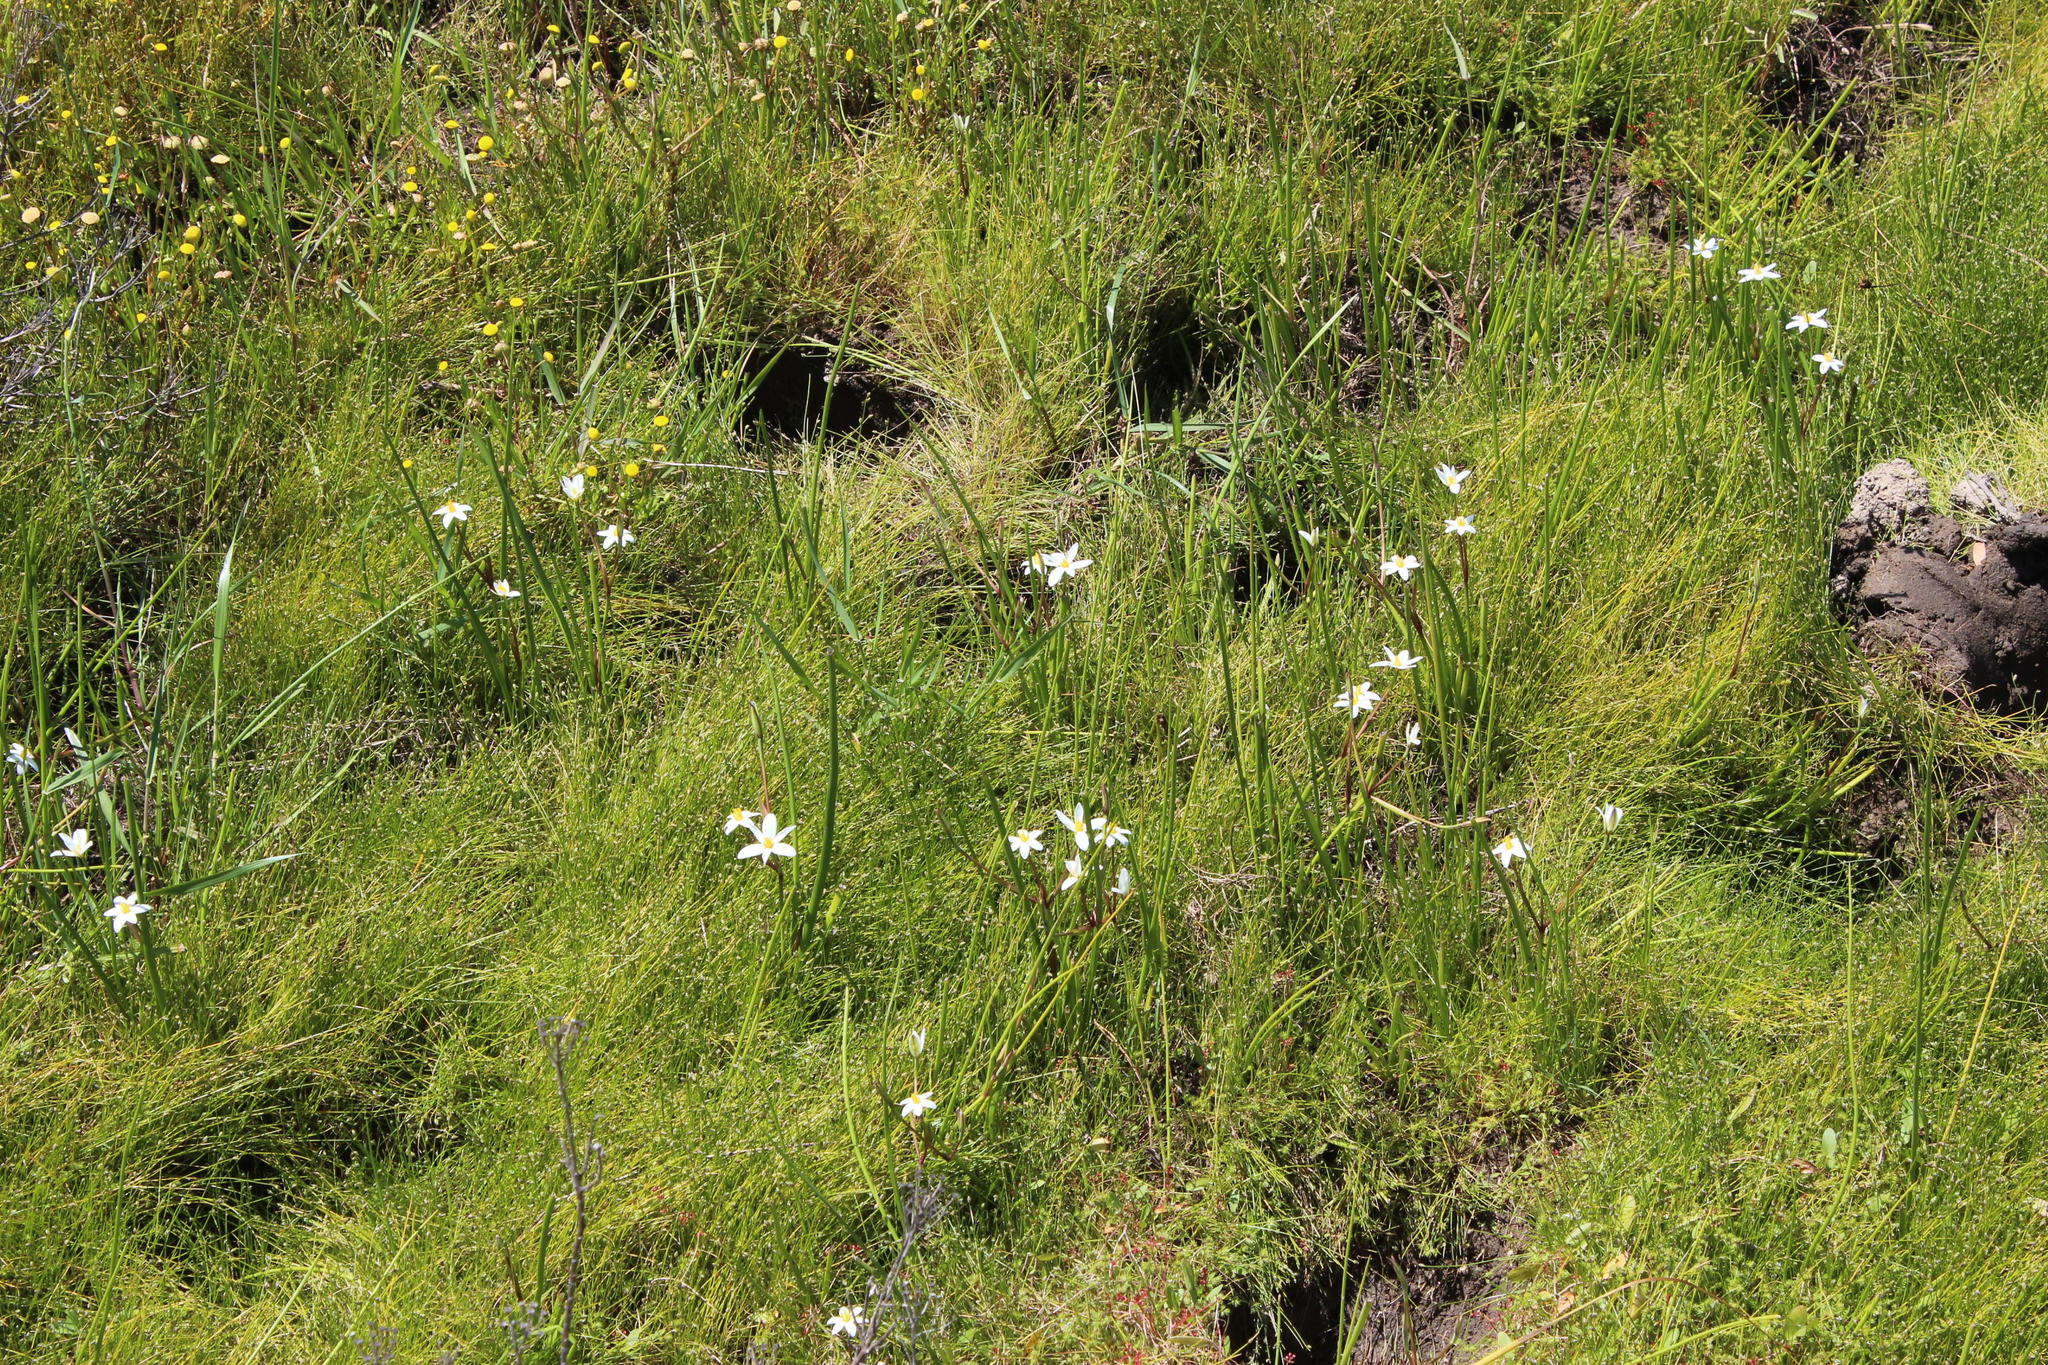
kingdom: Plantae
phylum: Tracheophyta
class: Liliopsida
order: Asparagales
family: Hypoxidaceae
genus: Pauridia
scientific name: Pauridia aquatica
